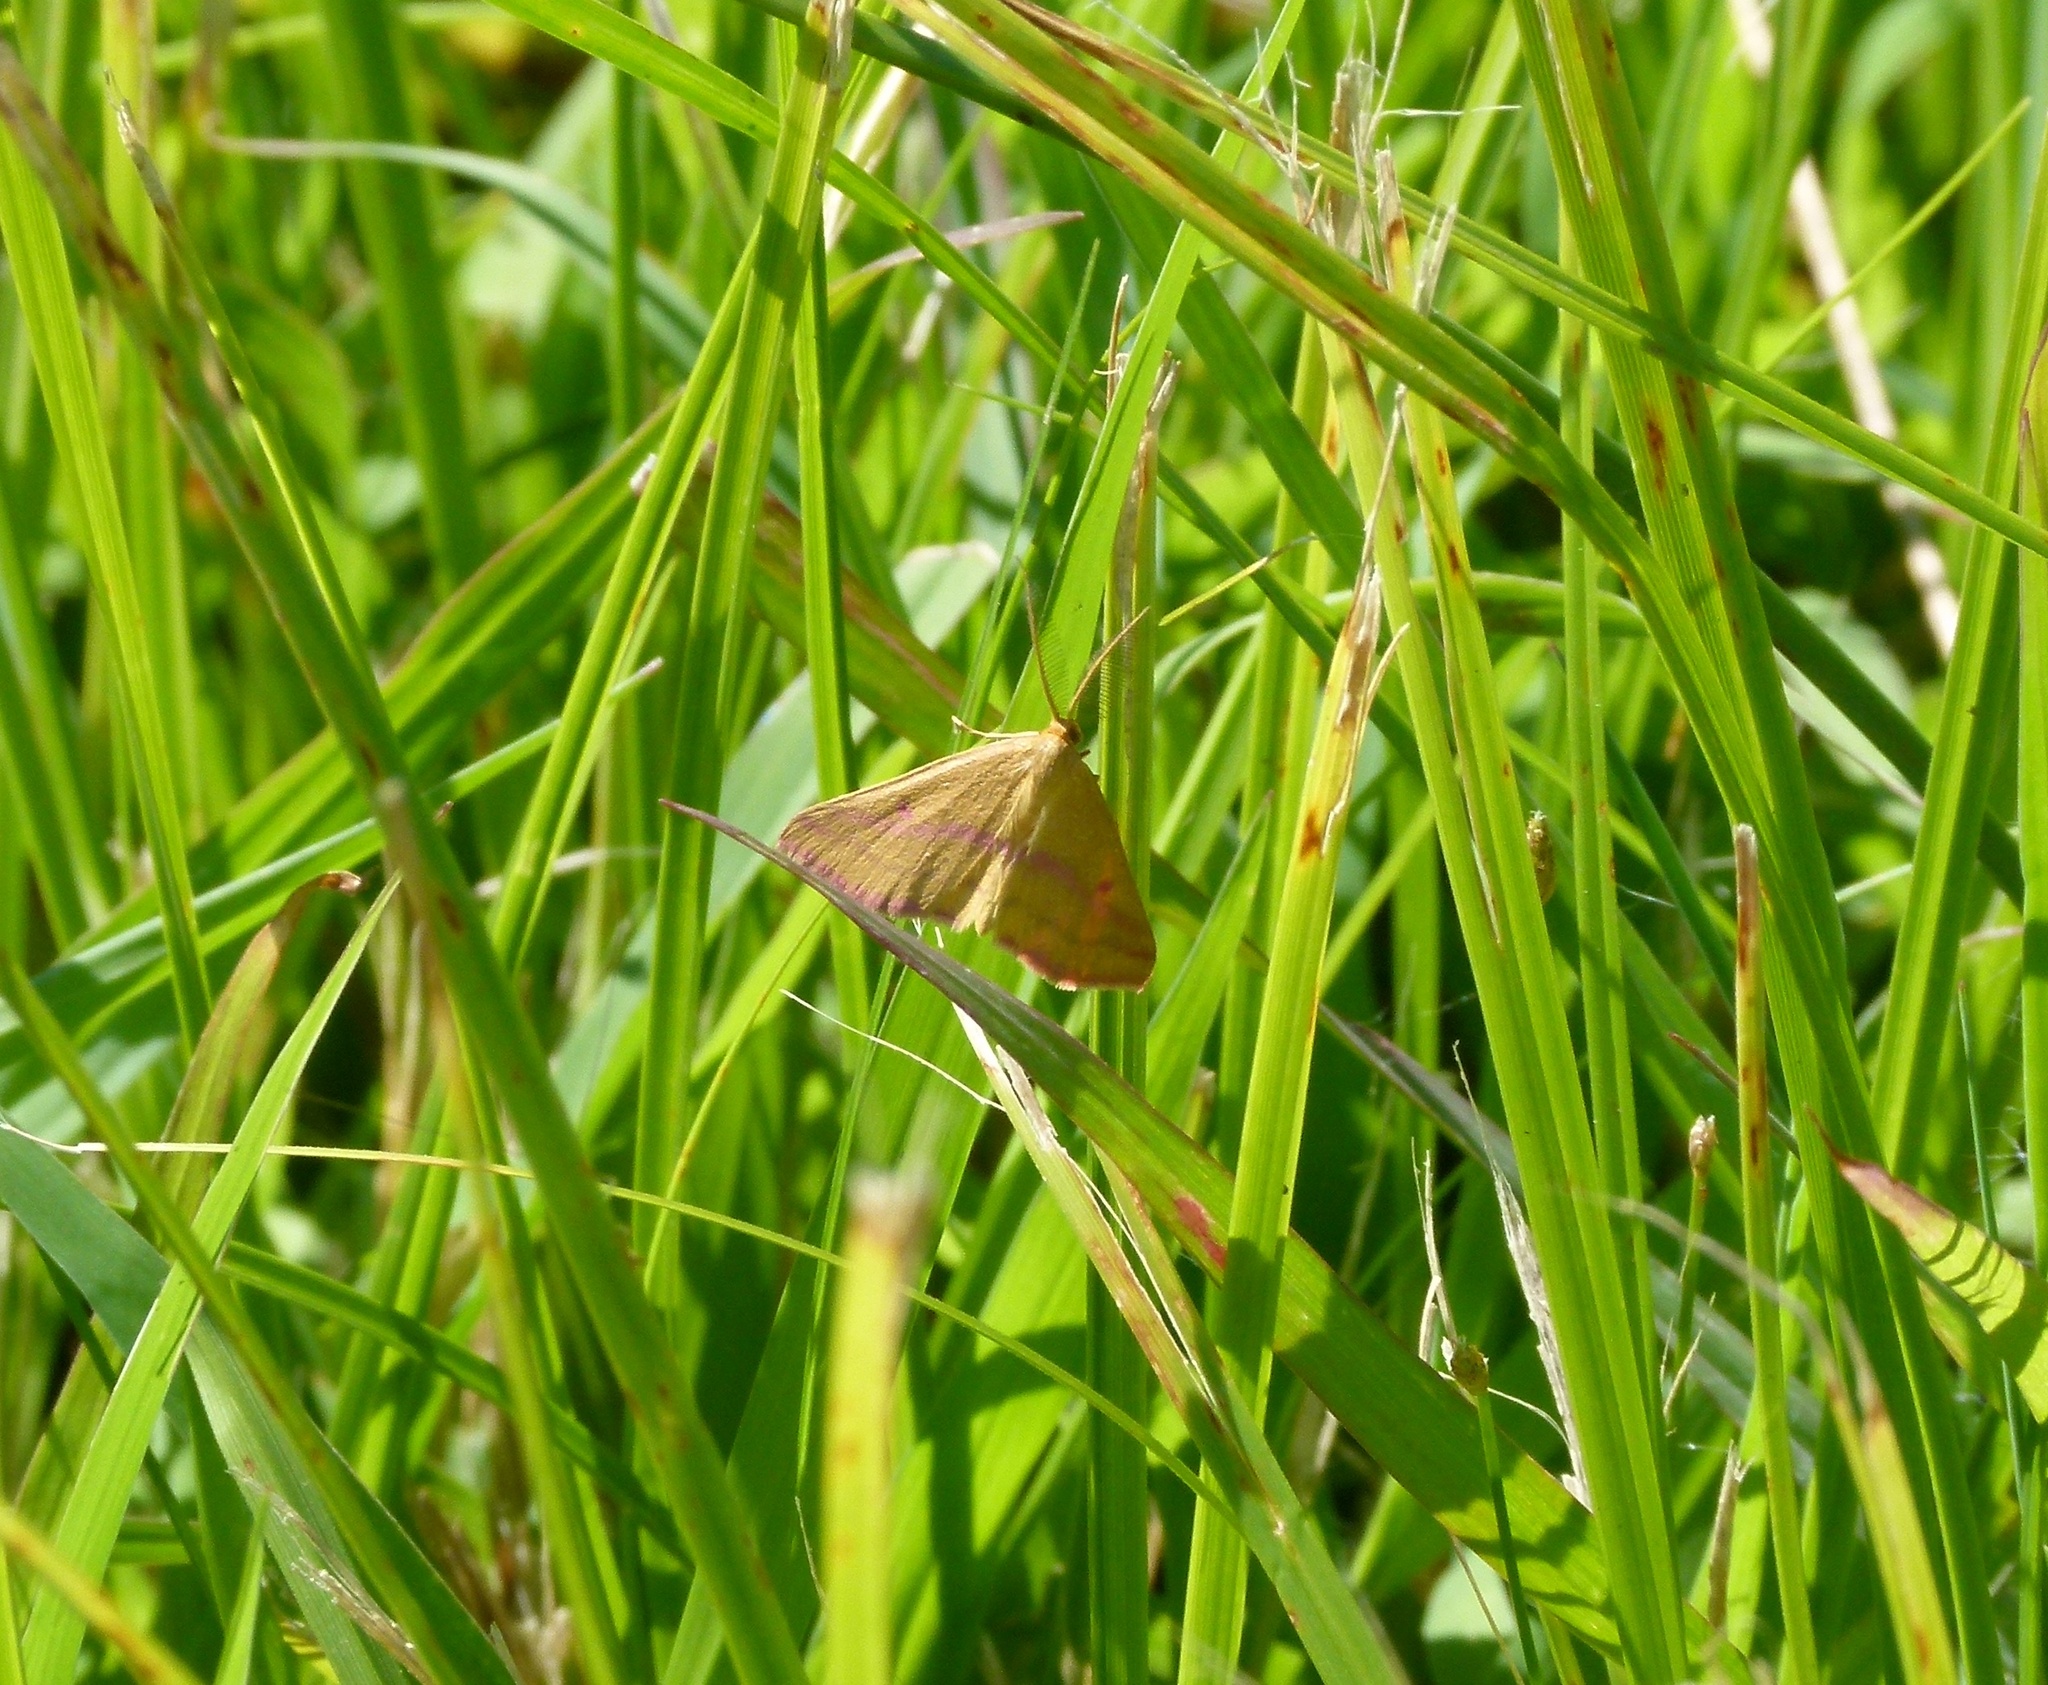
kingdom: Animalia
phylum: Arthropoda
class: Insecta
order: Lepidoptera
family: Geometridae
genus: Haematopis
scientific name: Haematopis grataria
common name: Chickweed geometer
